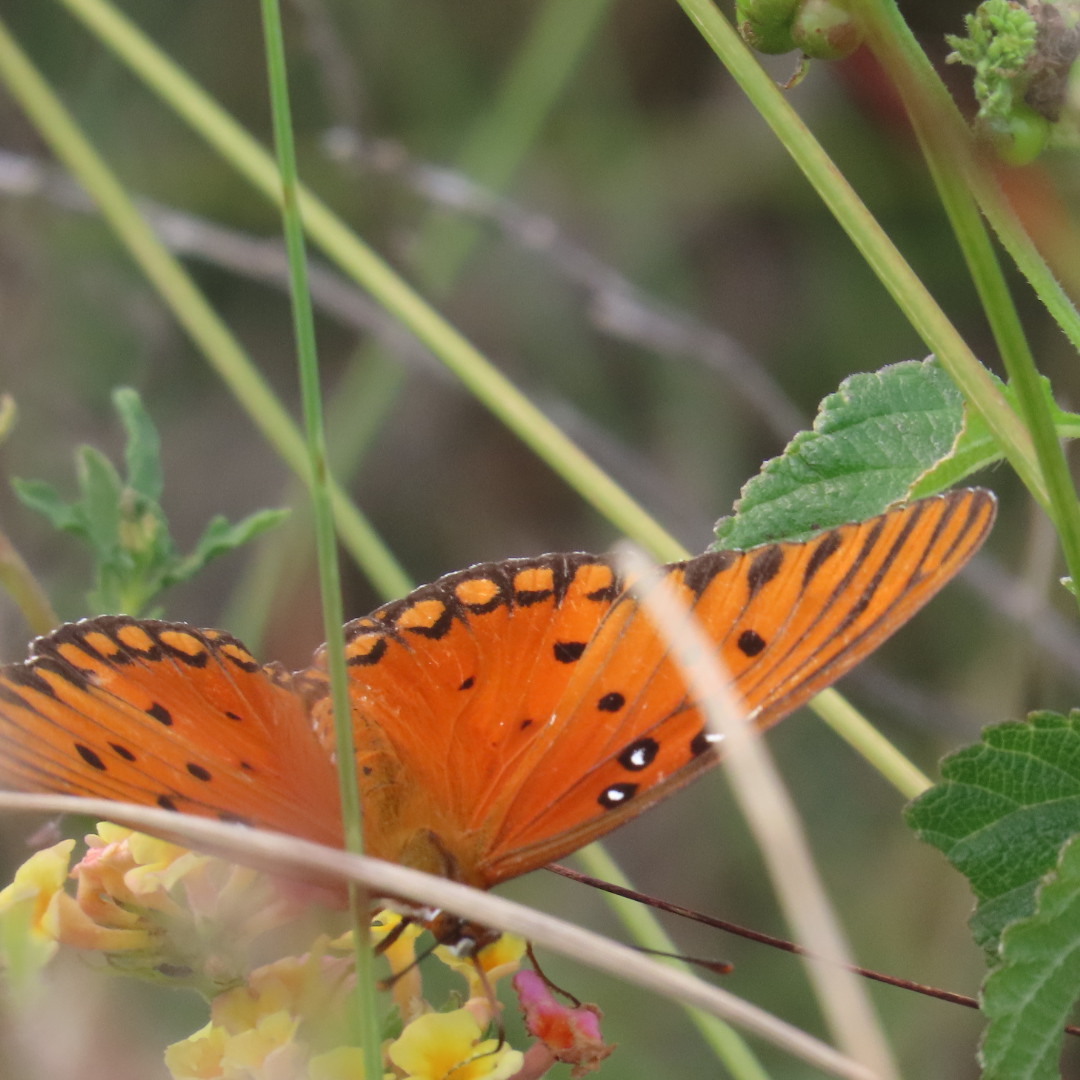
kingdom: Animalia
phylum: Arthropoda
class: Insecta
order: Lepidoptera
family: Nymphalidae
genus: Dione
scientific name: Dione vanillae
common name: Gulf fritillary
